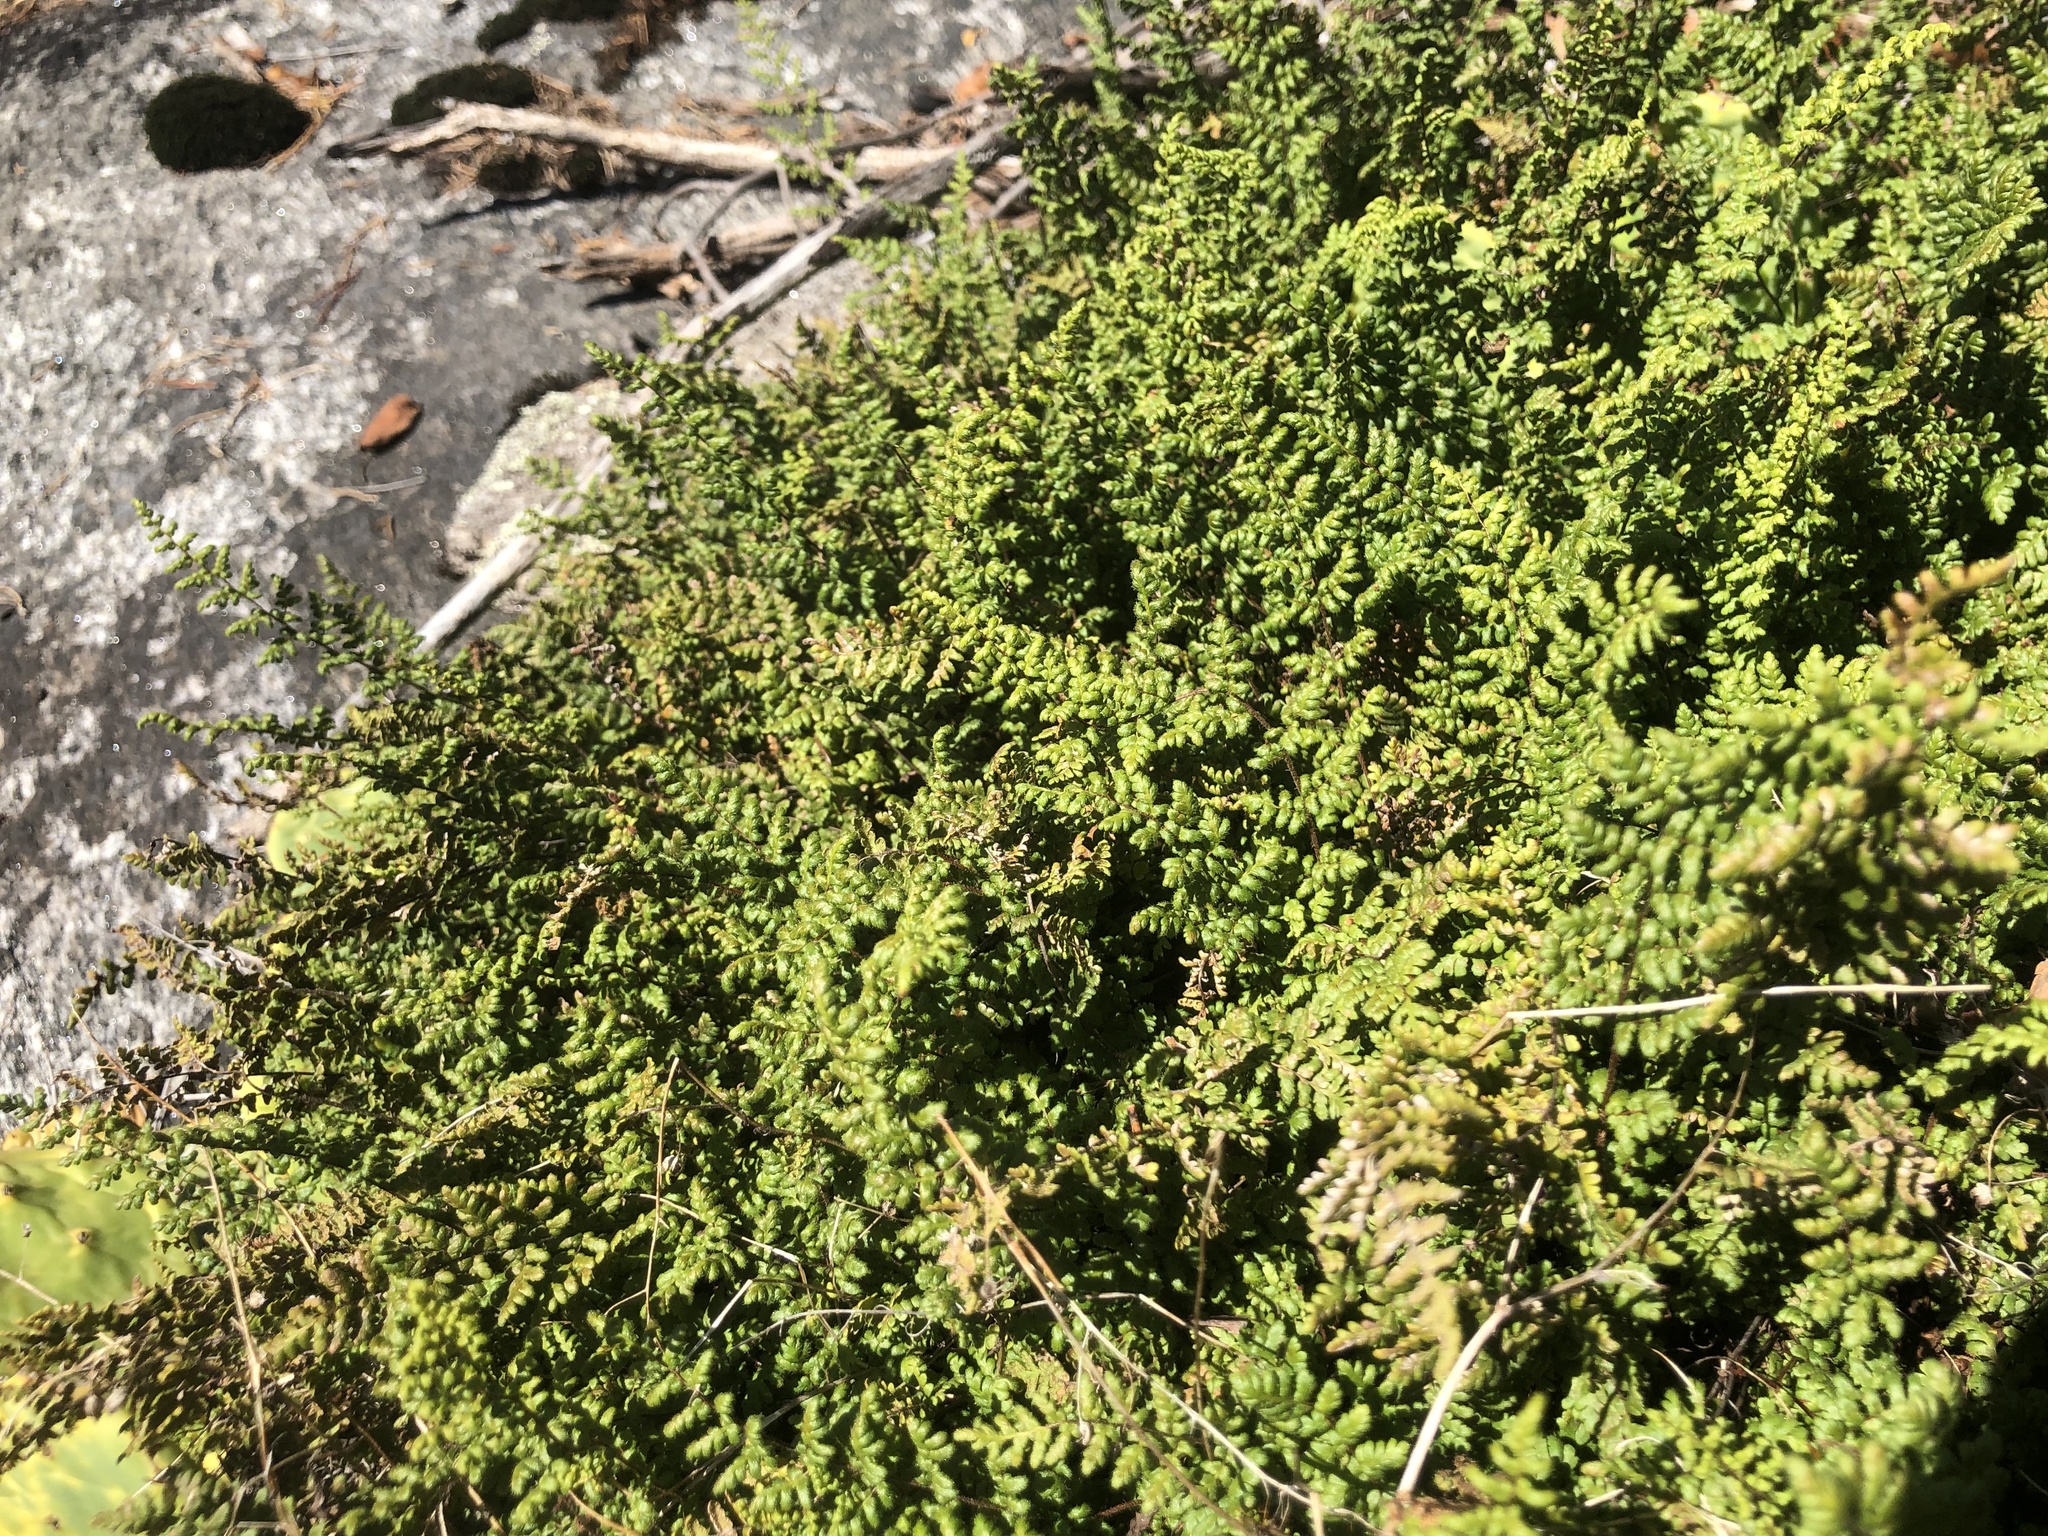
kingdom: Plantae
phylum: Tracheophyta
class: Polypodiopsida
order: Polypodiales
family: Pteridaceae
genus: Myriopteris
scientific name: Myriopteris lanosa
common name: Hairy lip fern
